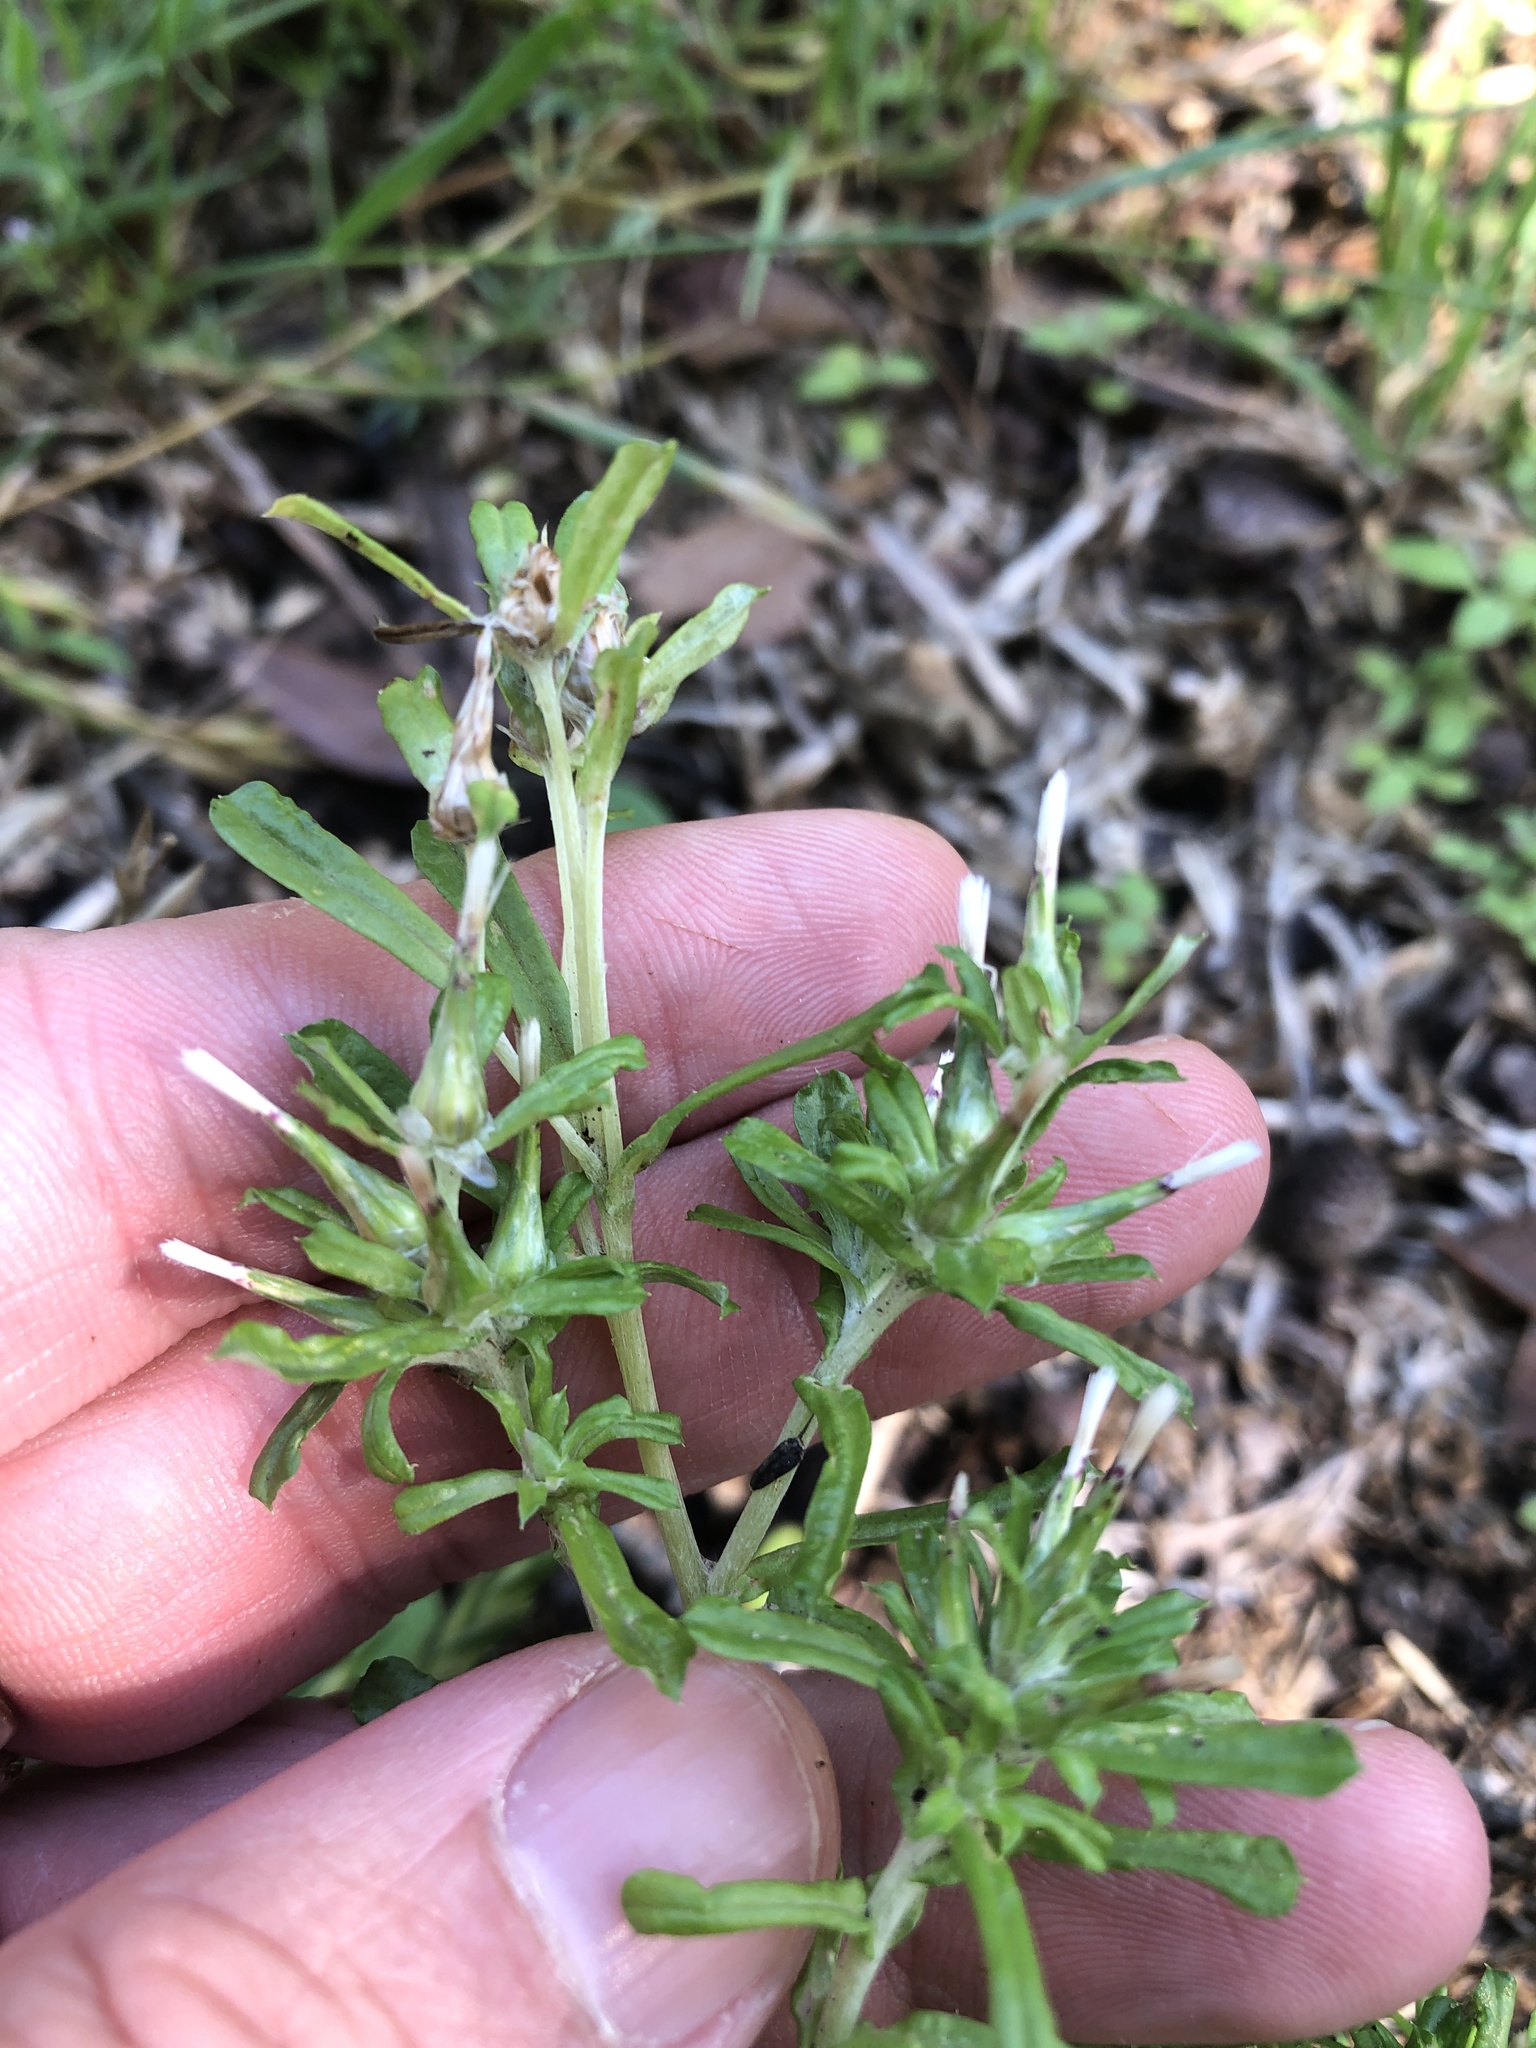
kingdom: Plantae
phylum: Tracheophyta
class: Magnoliopsida
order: Asterales
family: Asteraceae
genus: Facelis
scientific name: Facelis retusa
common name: Annual trampweed
